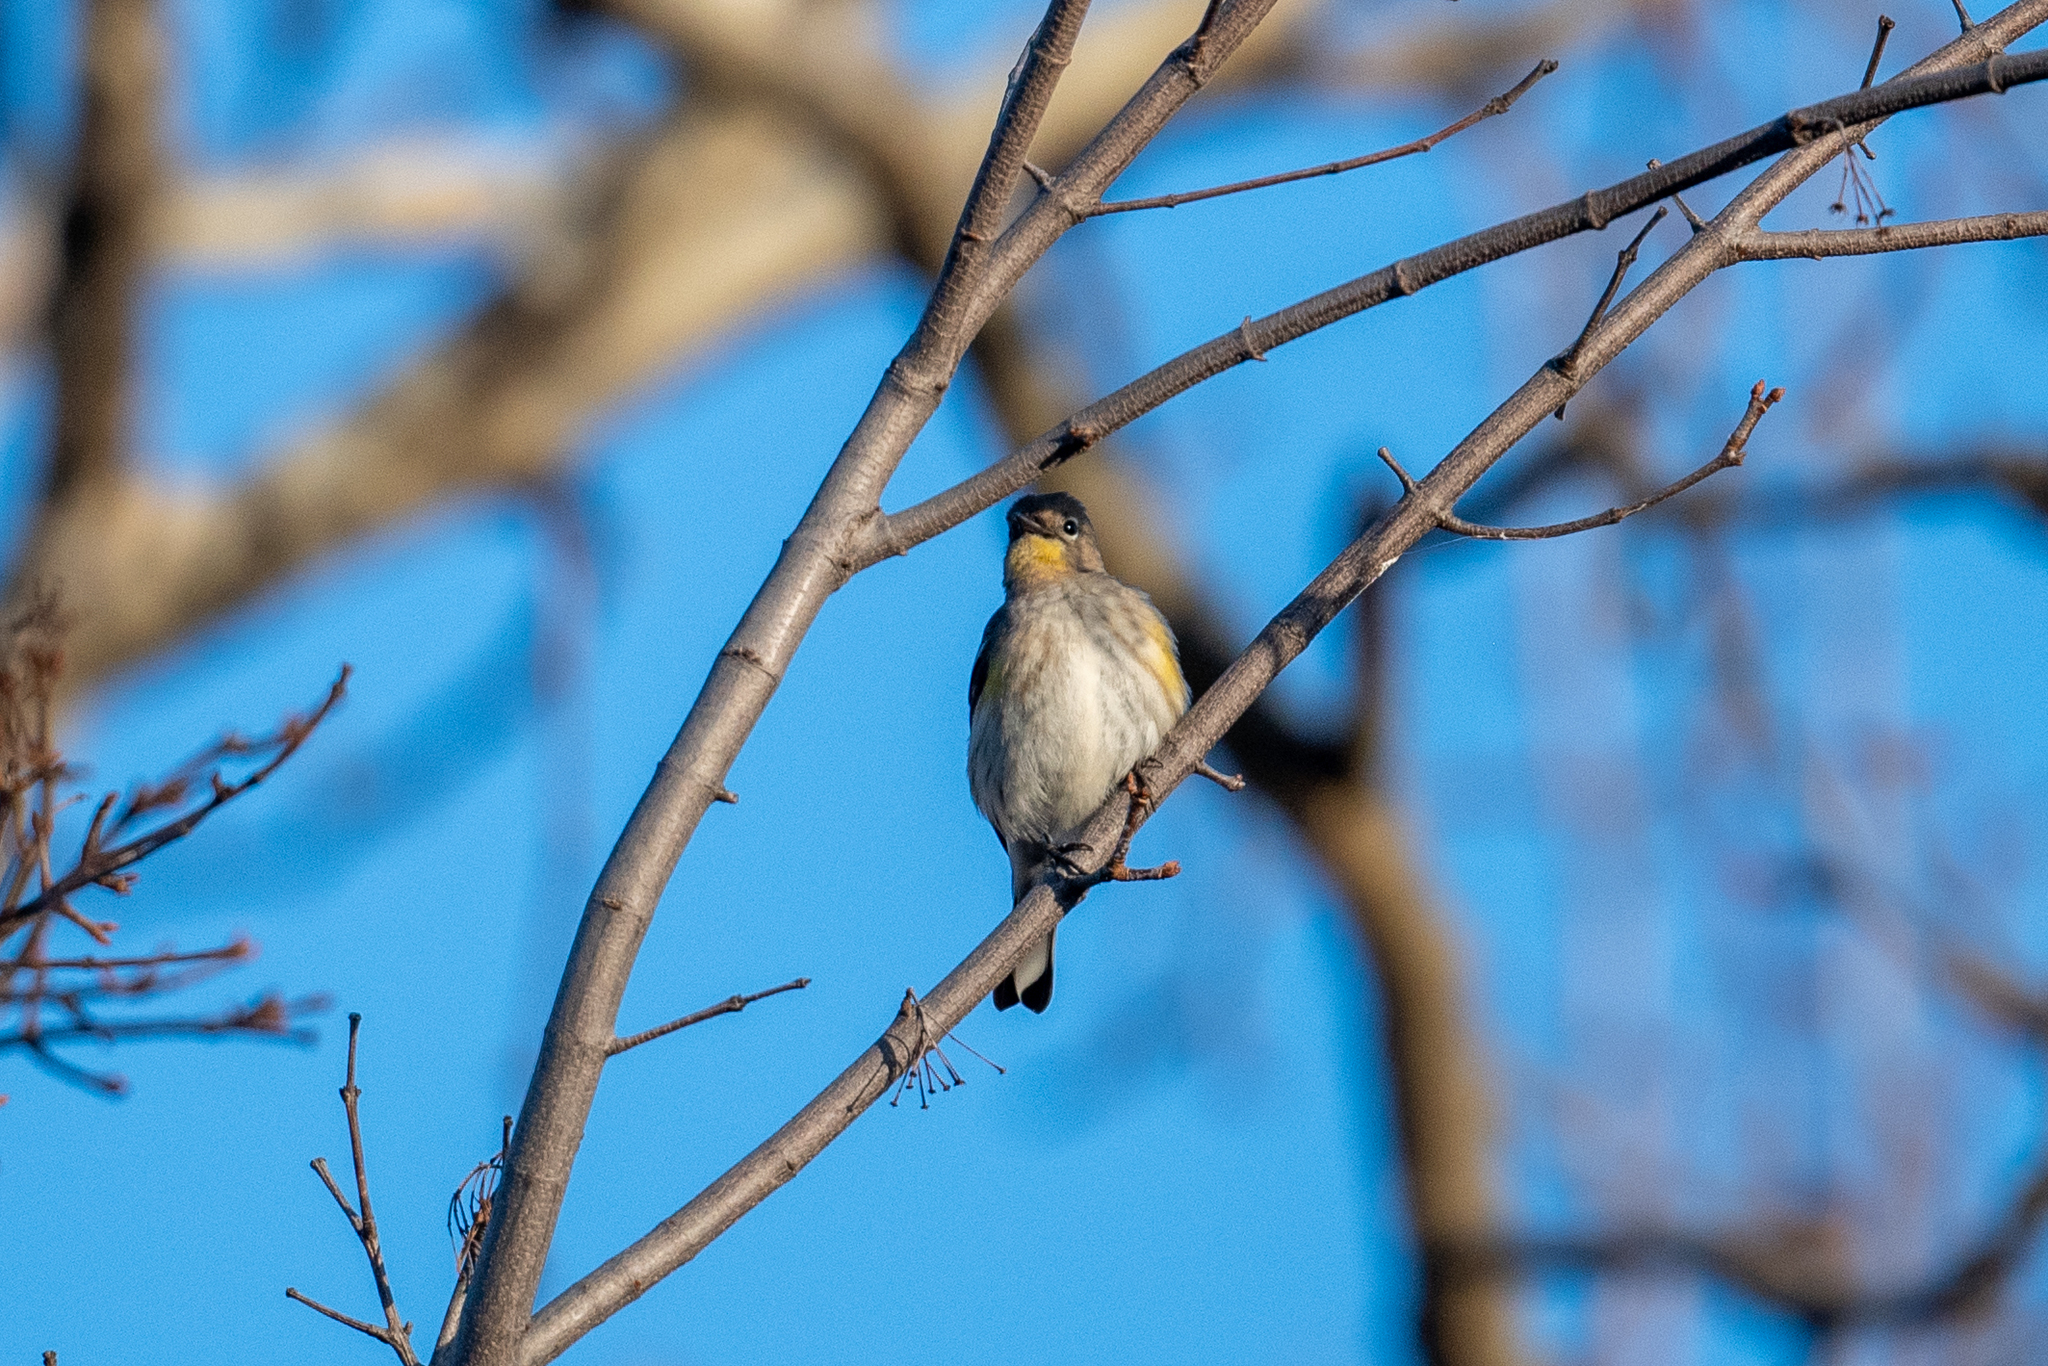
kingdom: Animalia
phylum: Chordata
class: Aves
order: Passeriformes
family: Parulidae
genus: Setophaga
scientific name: Setophaga coronata
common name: Myrtle warbler
